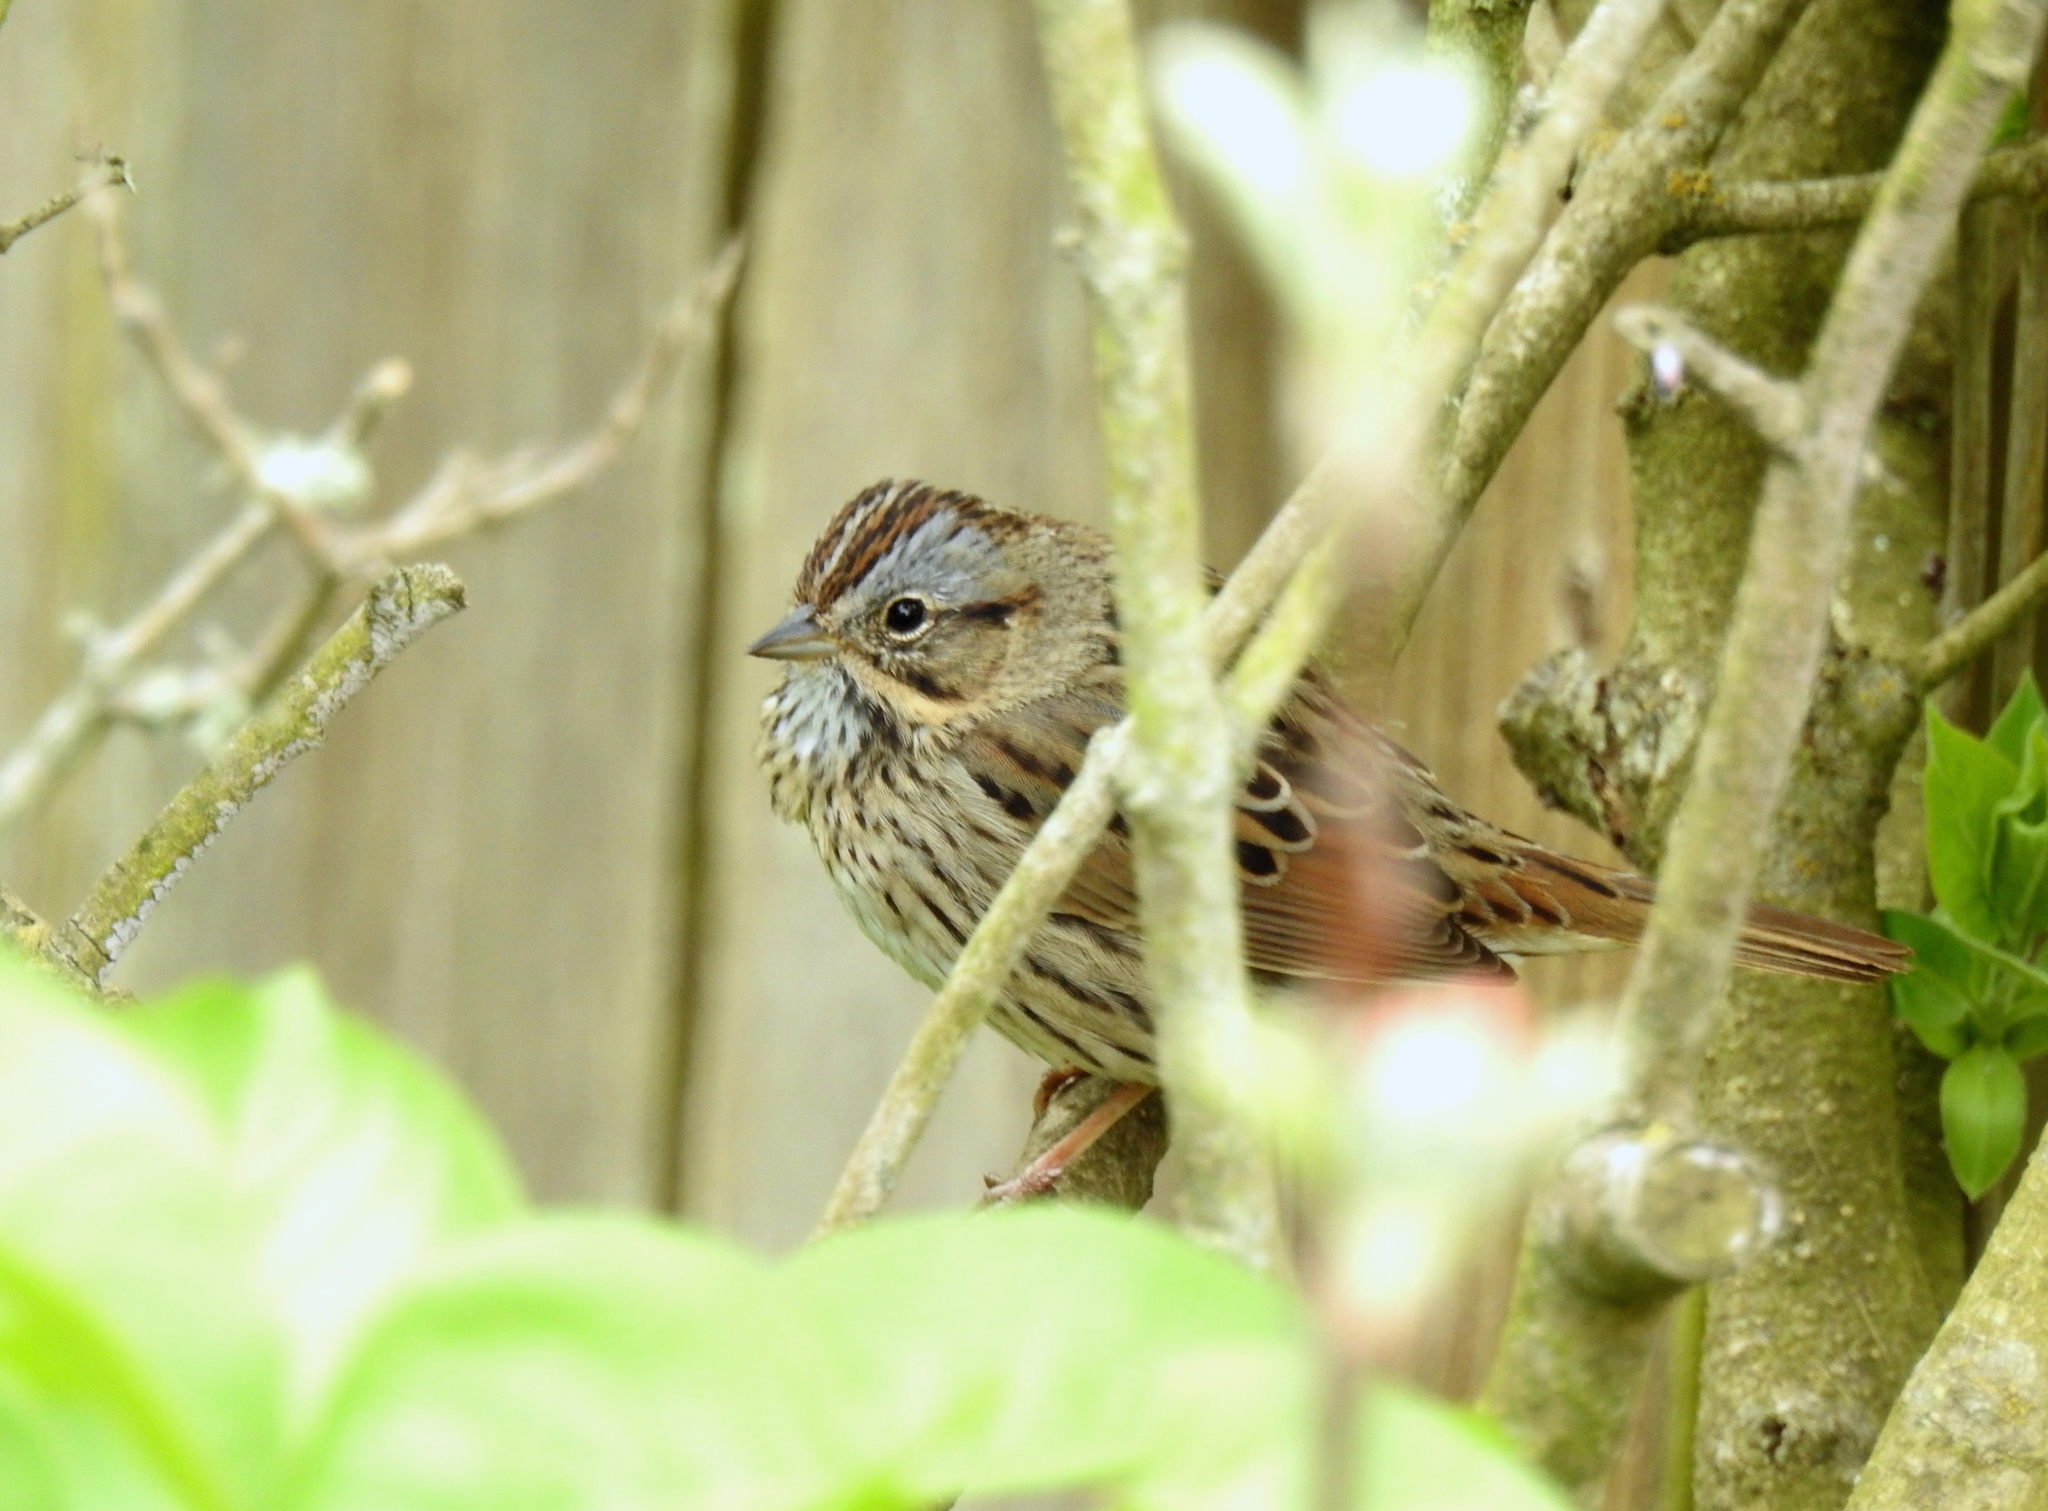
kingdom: Animalia
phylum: Chordata
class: Aves
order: Passeriformes
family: Passerellidae
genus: Melospiza
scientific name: Melospiza lincolnii
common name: Lincoln's sparrow
